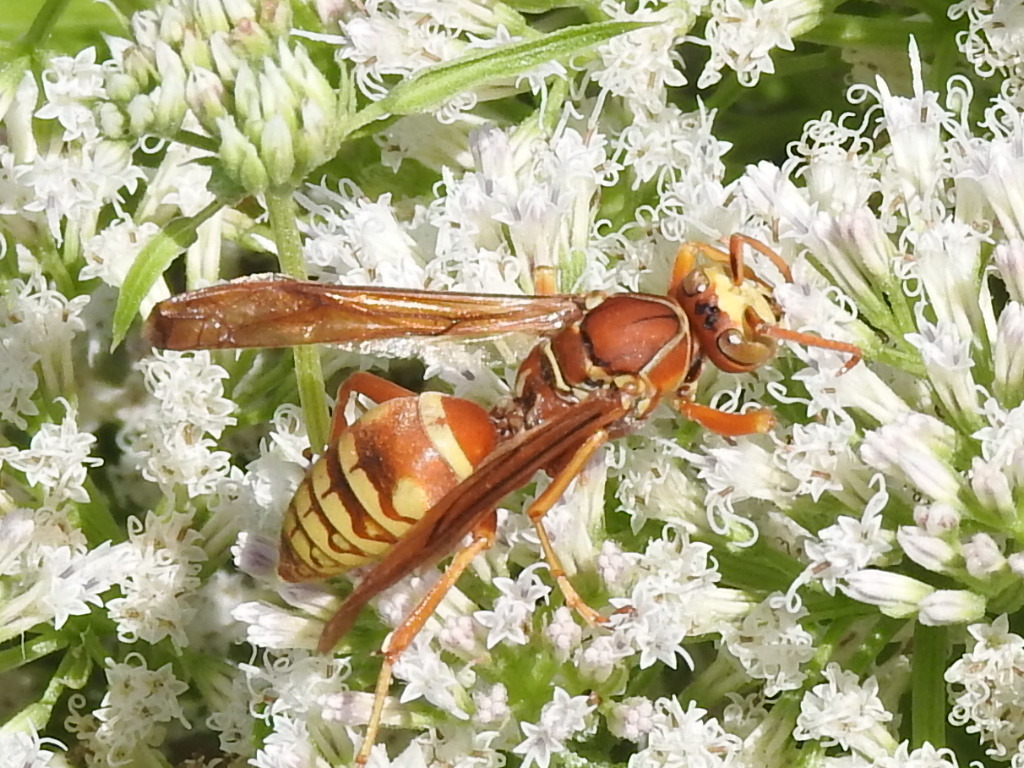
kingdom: Animalia
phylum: Arthropoda
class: Insecta
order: Hymenoptera
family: Eumenidae
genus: Polistes
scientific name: Polistes apachus
